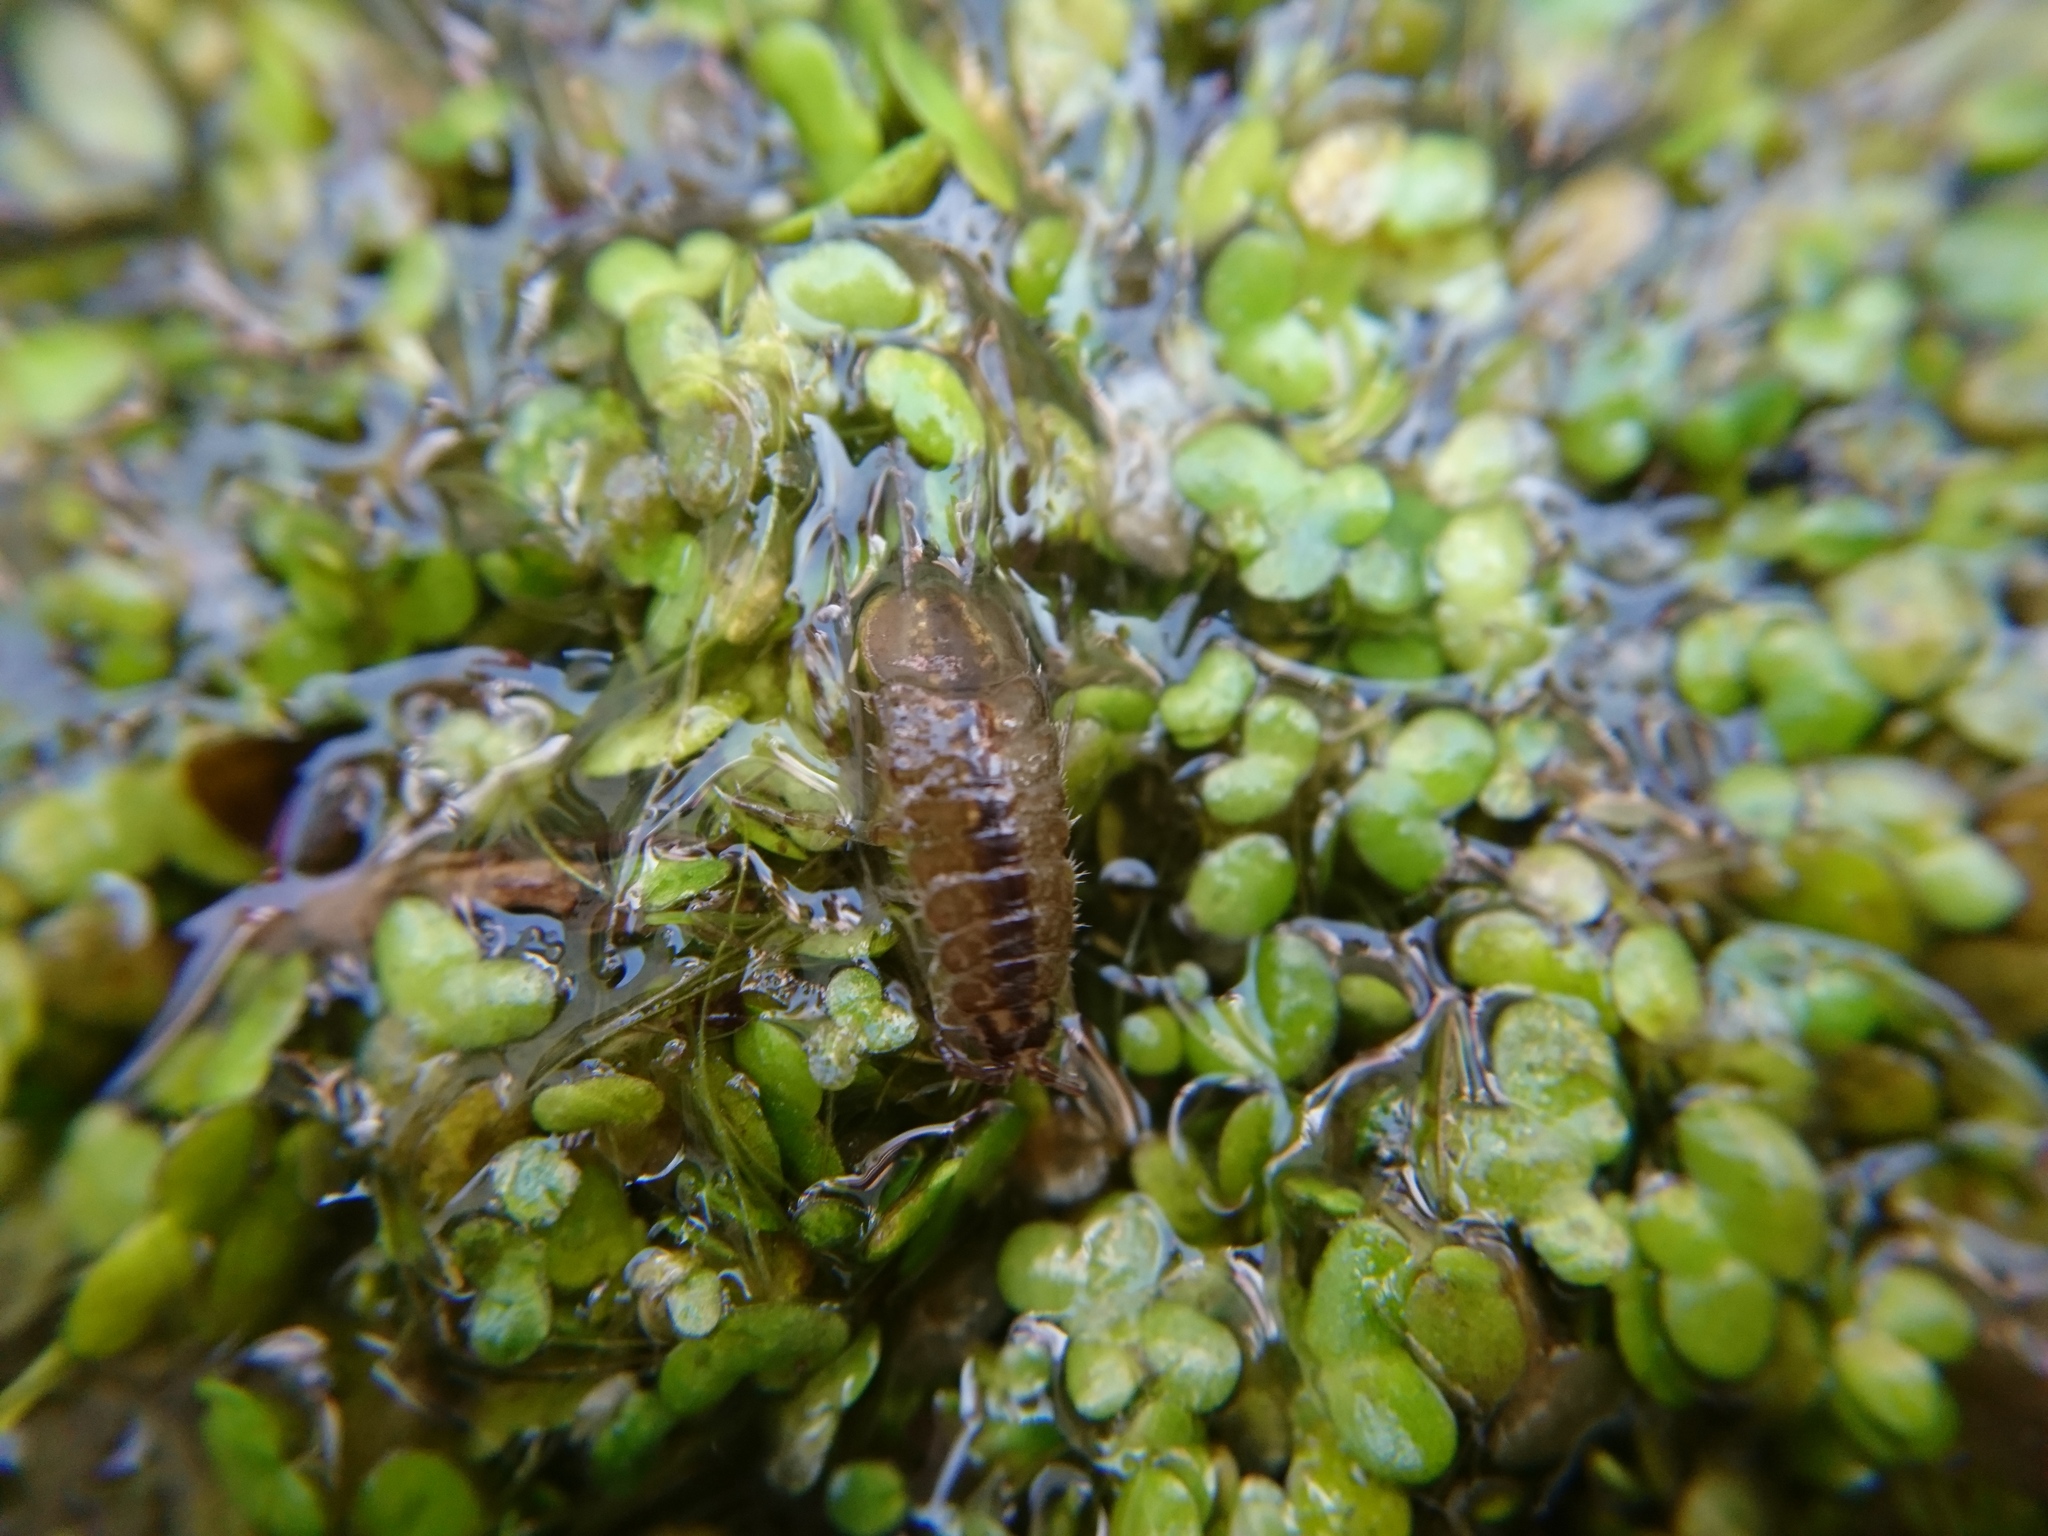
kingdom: Animalia
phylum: Arthropoda
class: Malacostraca
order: Isopoda
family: Asellidae
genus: Asellus
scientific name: Asellus aquaticus
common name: Water hog lice/slaters
